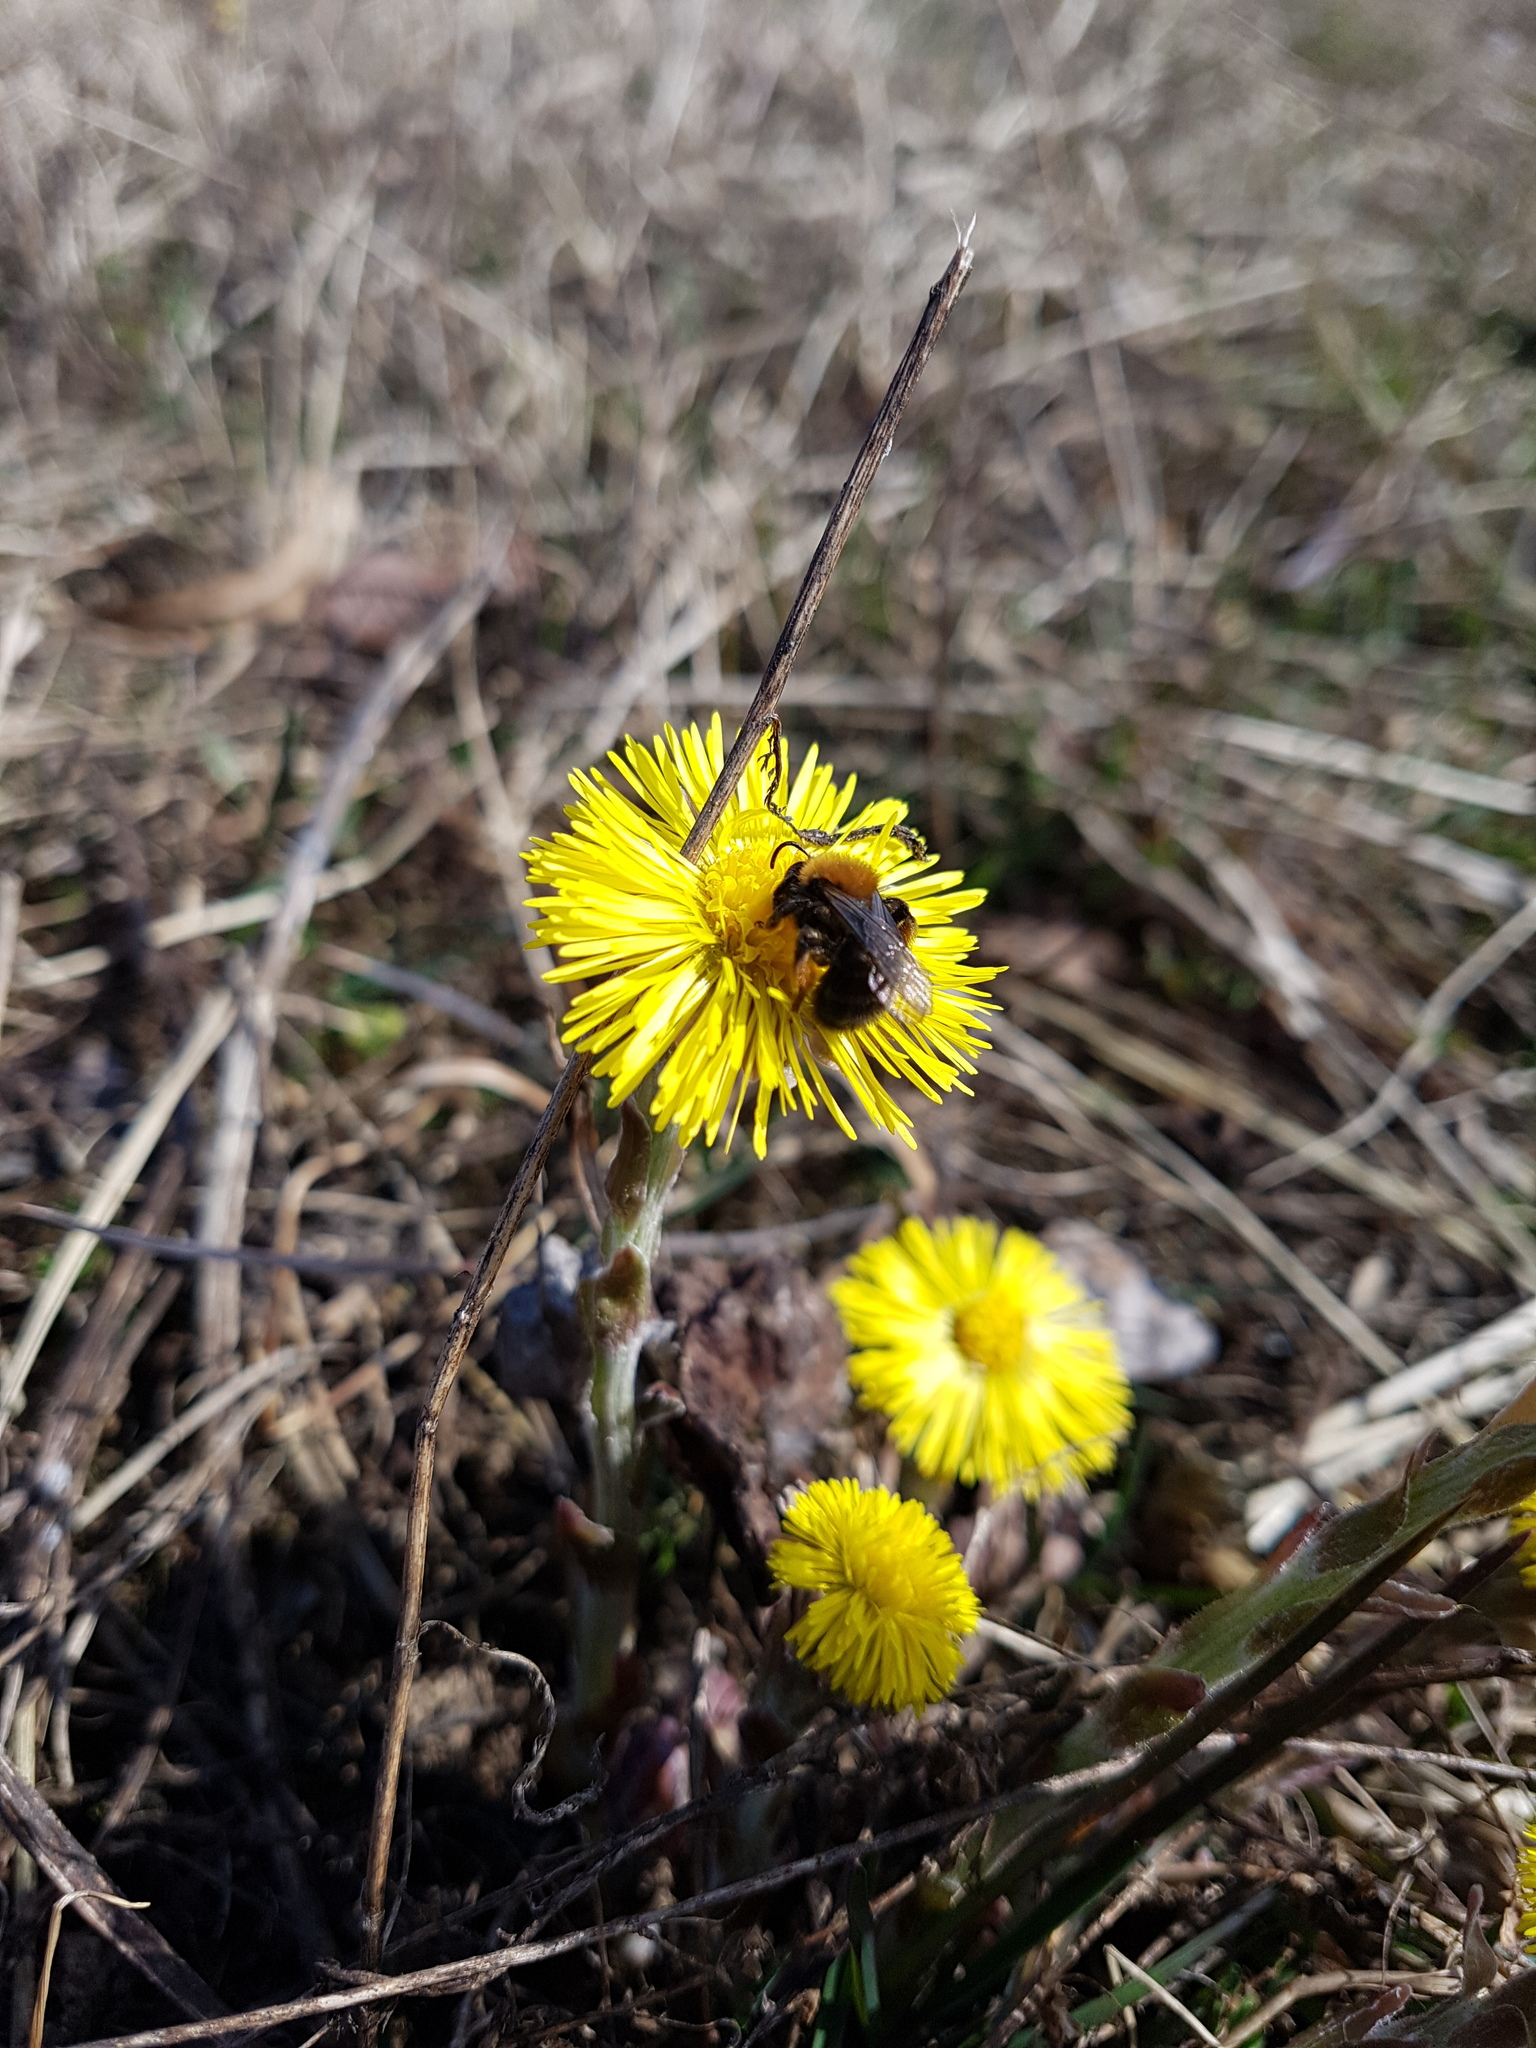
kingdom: Animalia
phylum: Arthropoda
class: Insecta
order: Hymenoptera
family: Andrenidae
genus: Andrena
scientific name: Andrena clarkella
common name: Clarke's mining bee
